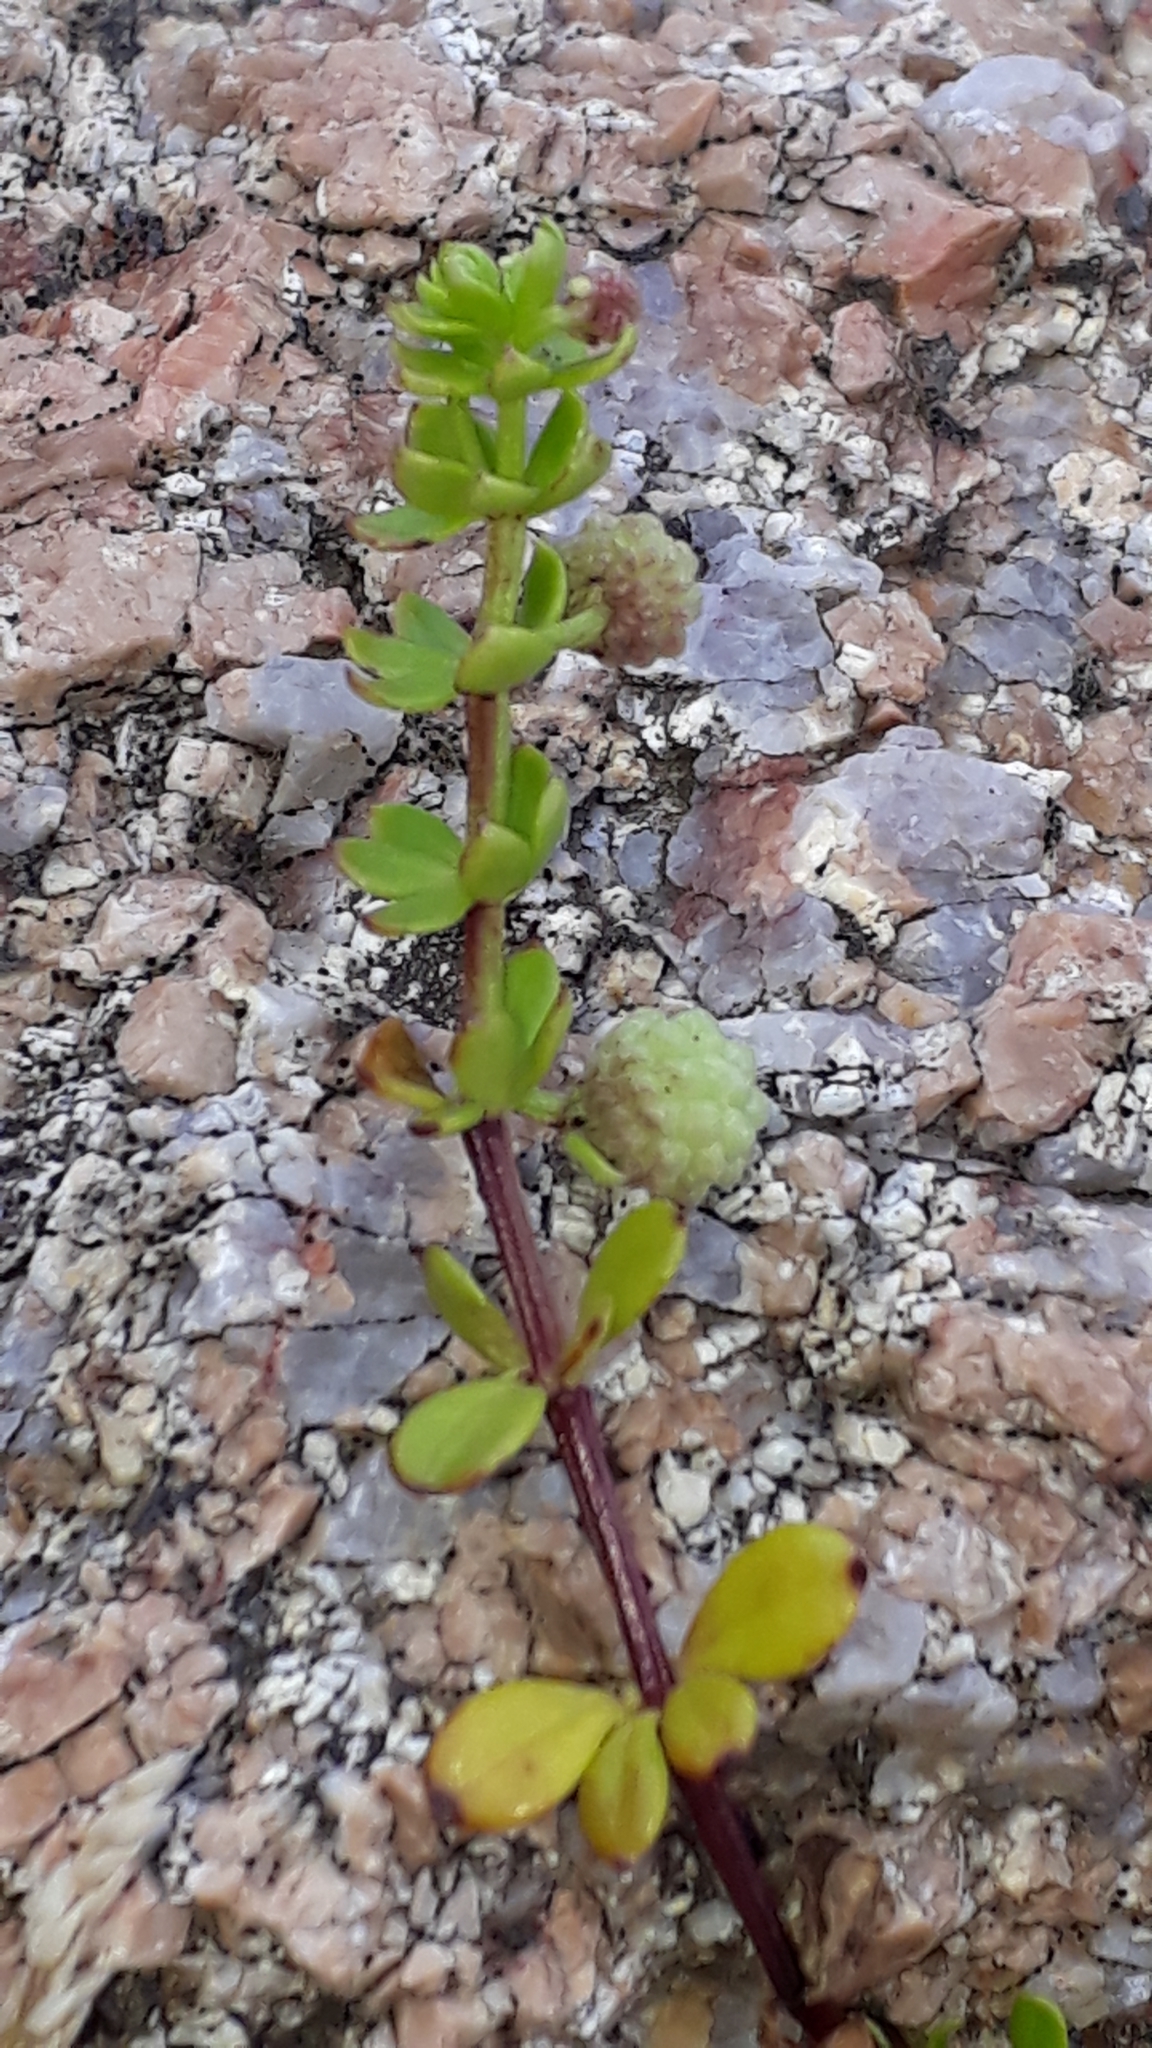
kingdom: Plantae
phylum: Tracheophyta
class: Magnoliopsida
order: Gentianales
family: Rubiaceae
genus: Galium
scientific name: Galium verrucosum
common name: Warty bedstraw
